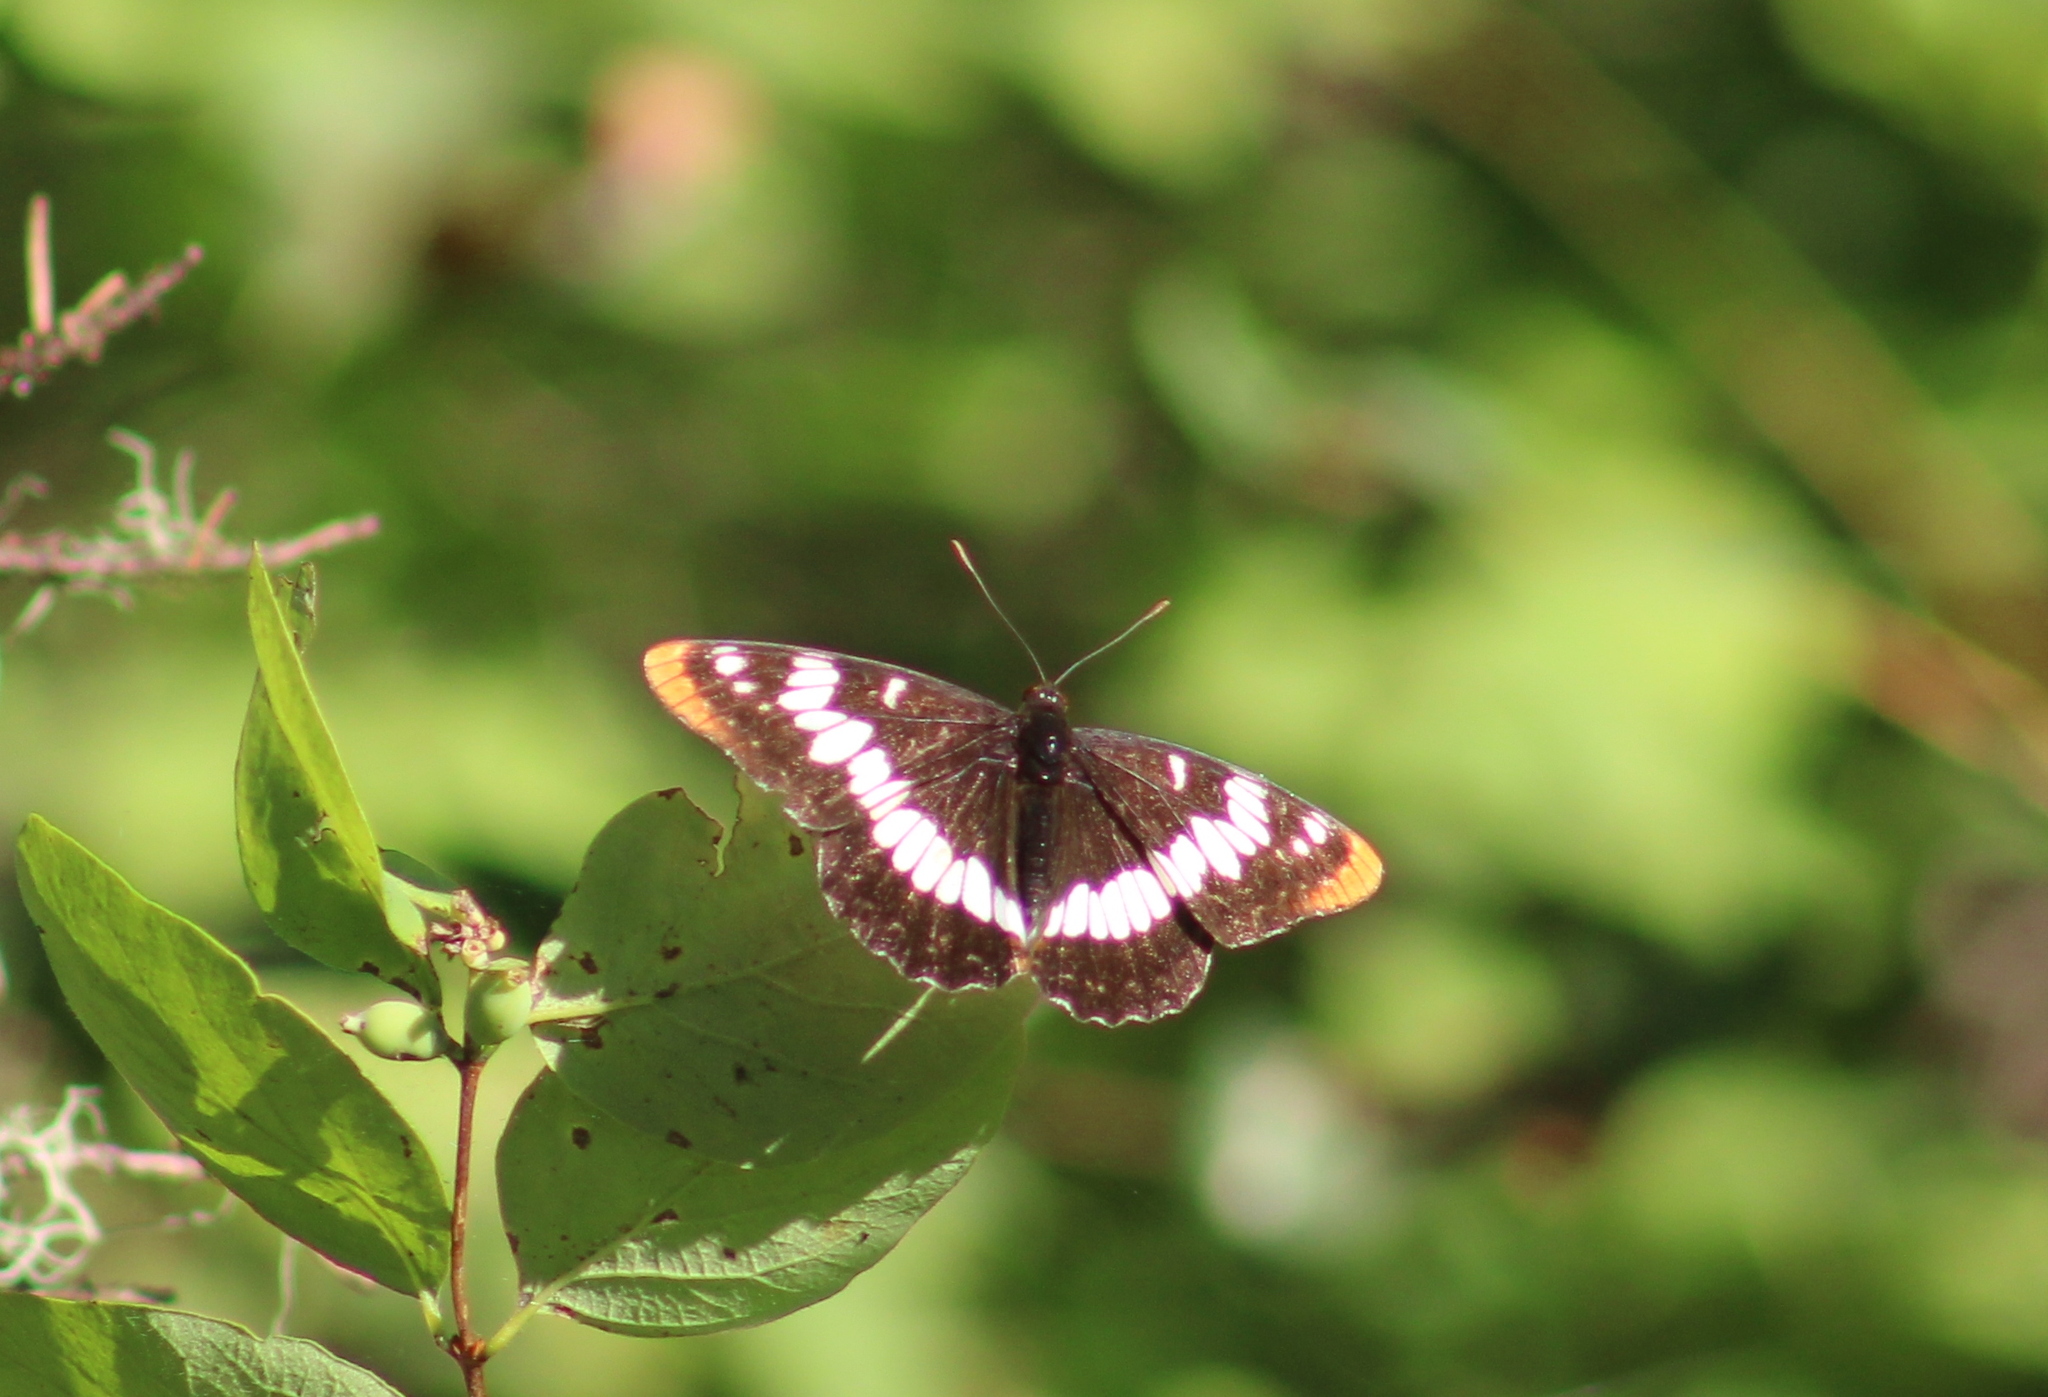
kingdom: Animalia
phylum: Arthropoda
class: Insecta
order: Lepidoptera
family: Nymphalidae
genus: Limenitis
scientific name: Limenitis lorquini
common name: Lorquin's admiral
